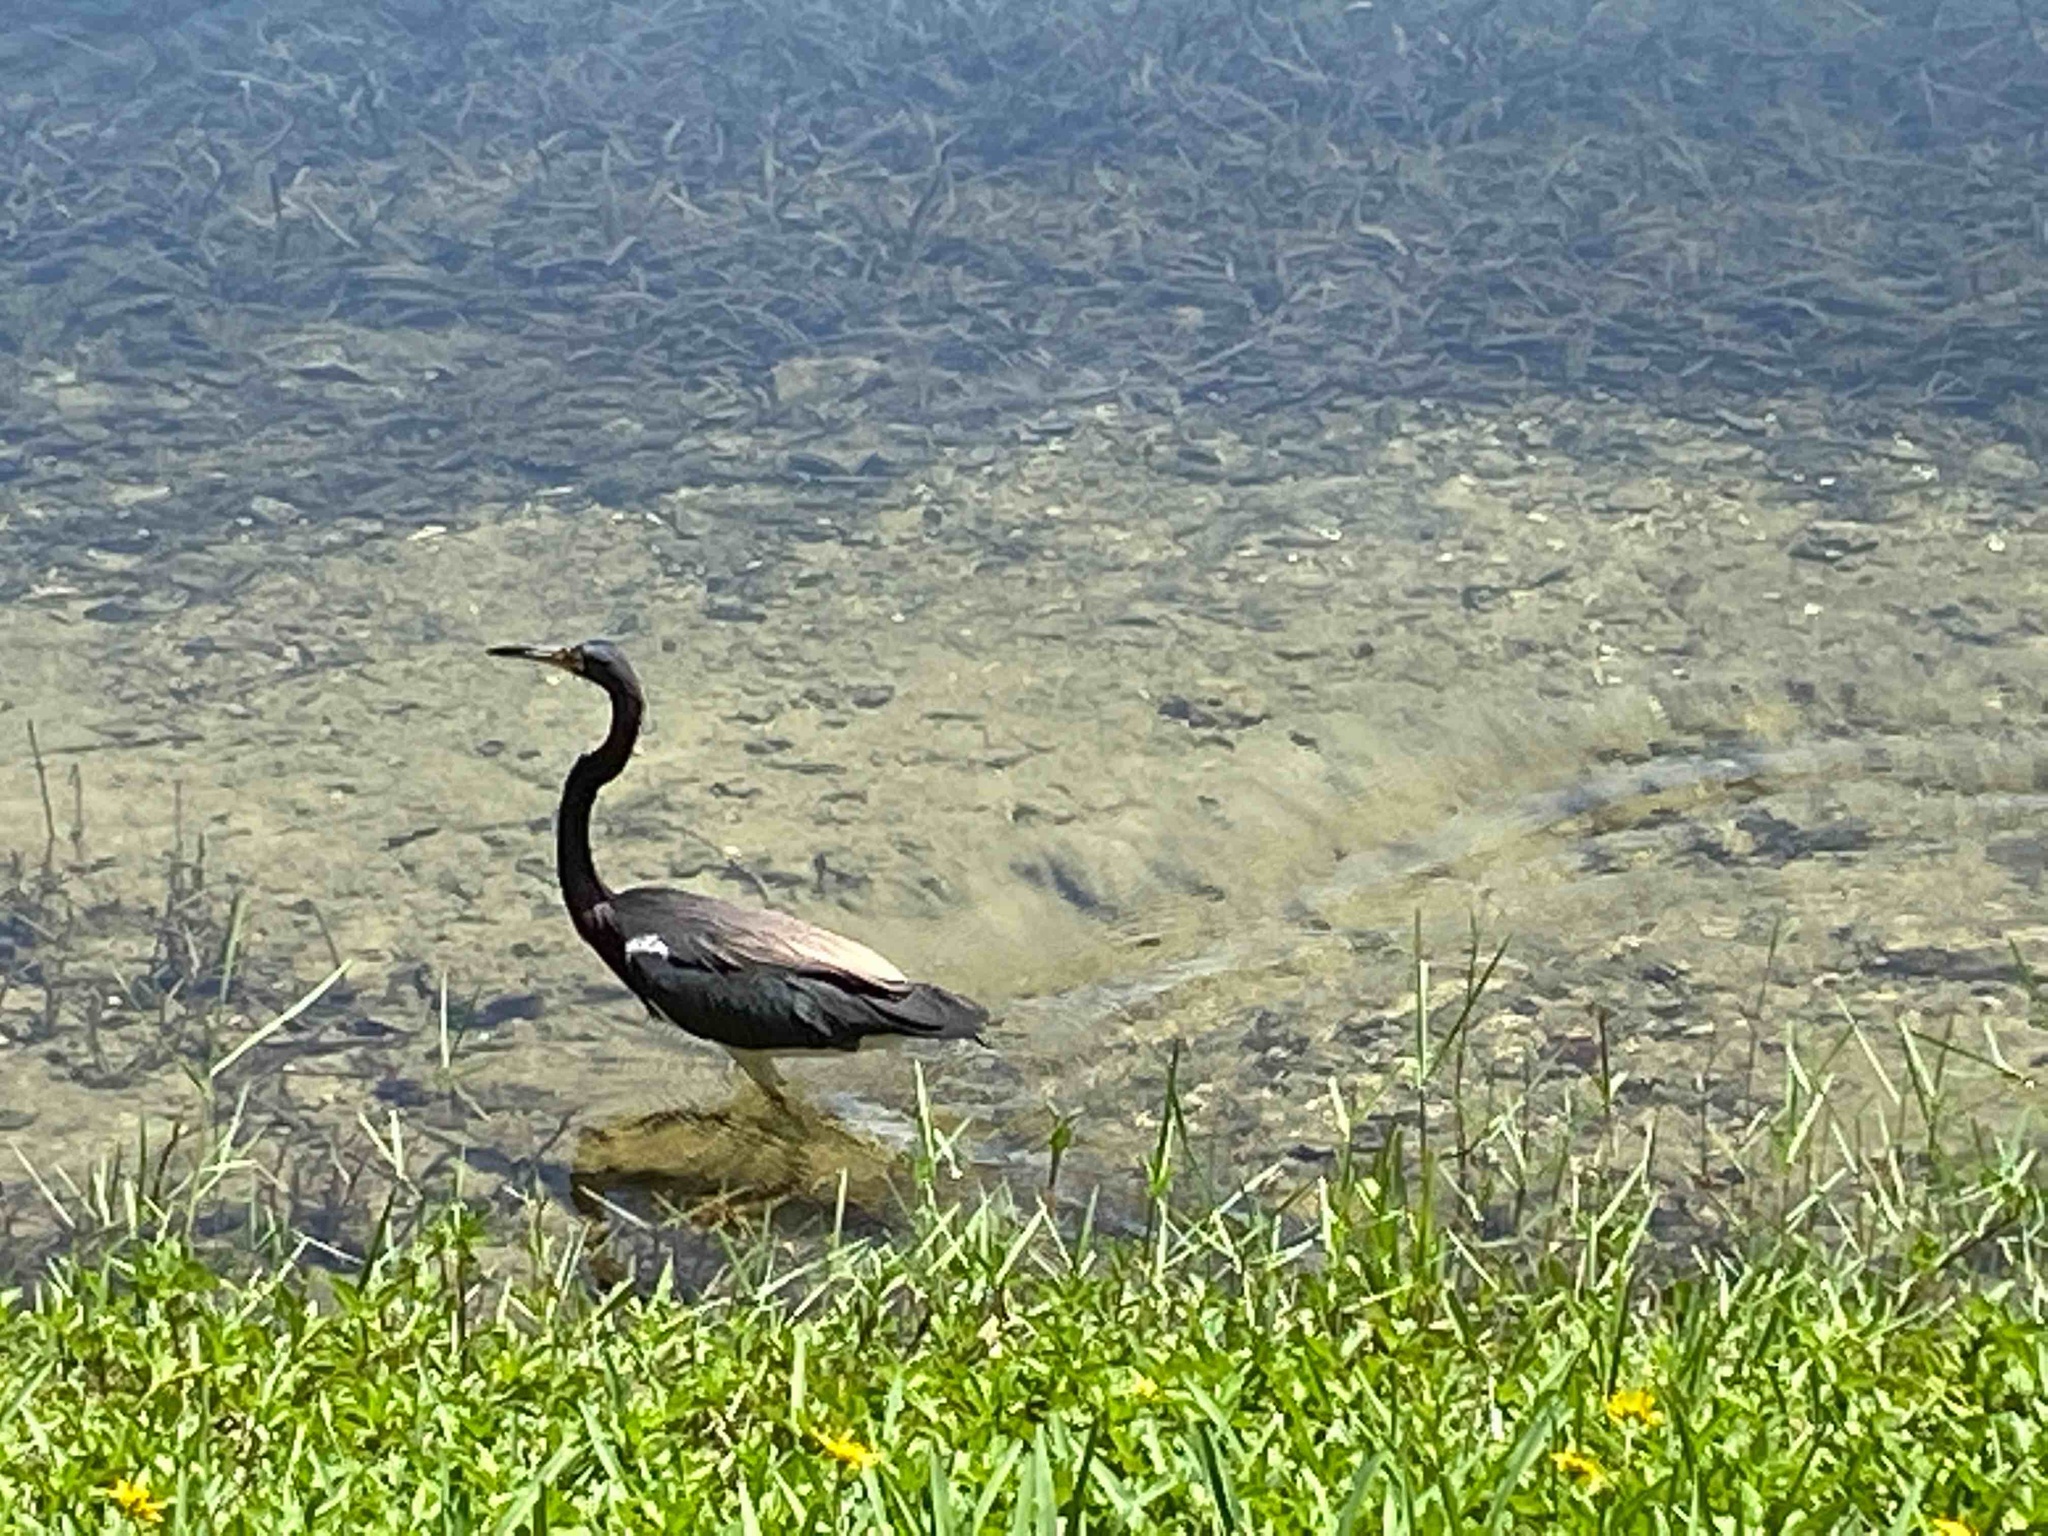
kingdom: Animalia
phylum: Chordata
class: Aves
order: Pelecaniformes
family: Ardeidae
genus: Egretta
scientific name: Egretta tricolor
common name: Tricolored heron
